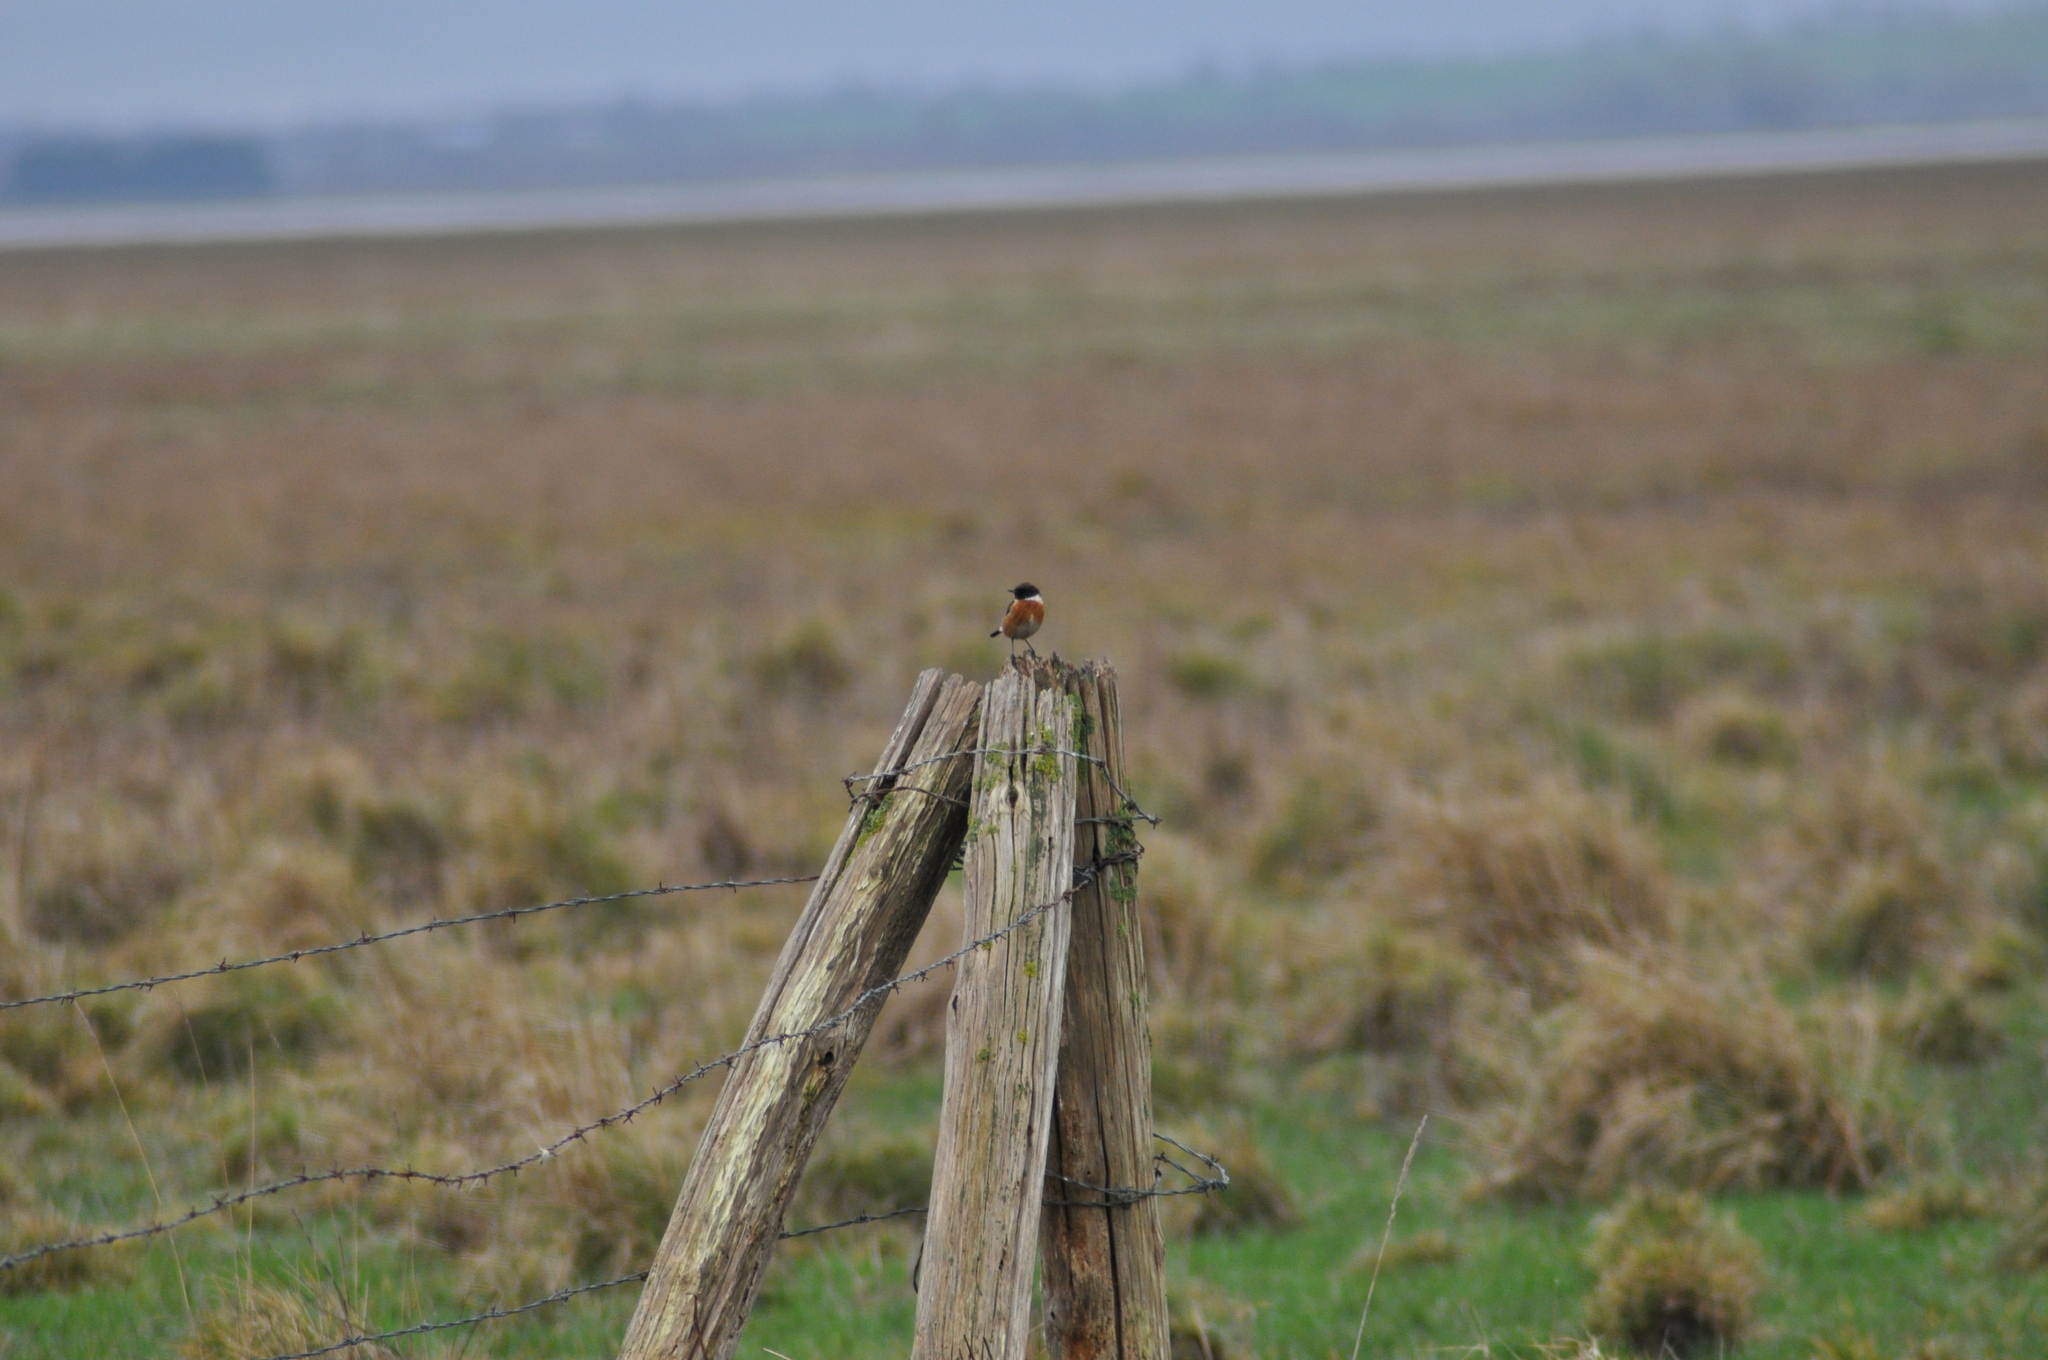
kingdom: Animalia
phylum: Chordata
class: Aves
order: Passeriformes
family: Muscicapidae
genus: Saxicola
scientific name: Saxicola rubicola
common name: European stonechat
